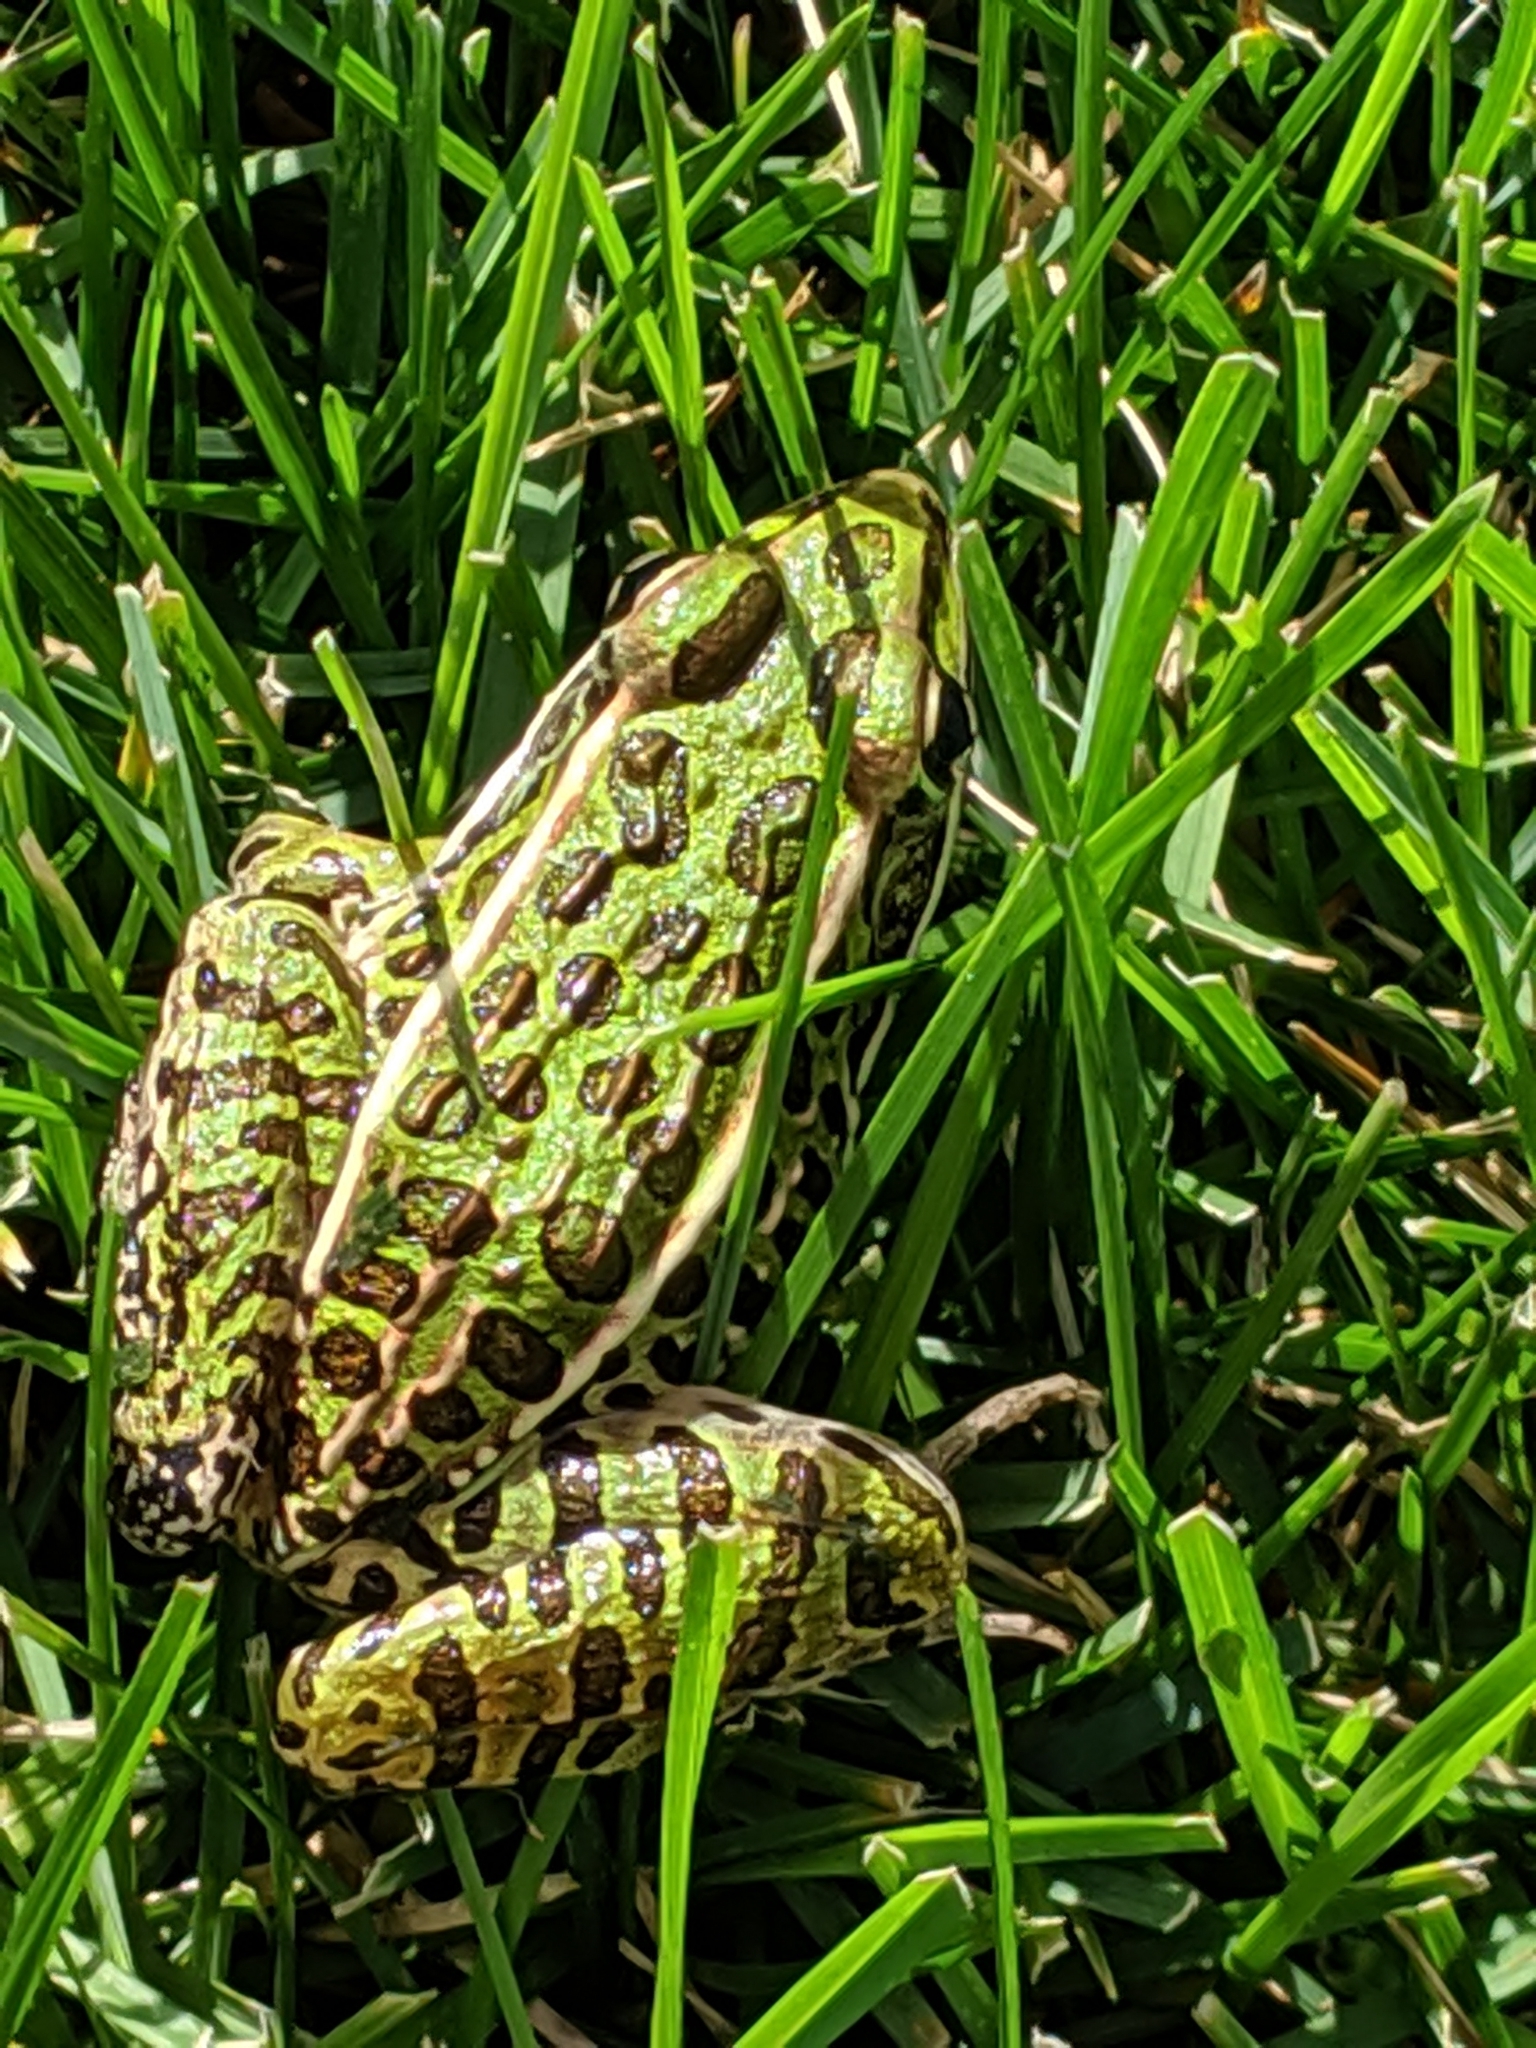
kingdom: Animalia
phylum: Chordata
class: Amphibia
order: Anura
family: Ranidae
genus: Lithobates
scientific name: Lithobates pipiens
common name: Northern leopard frog
